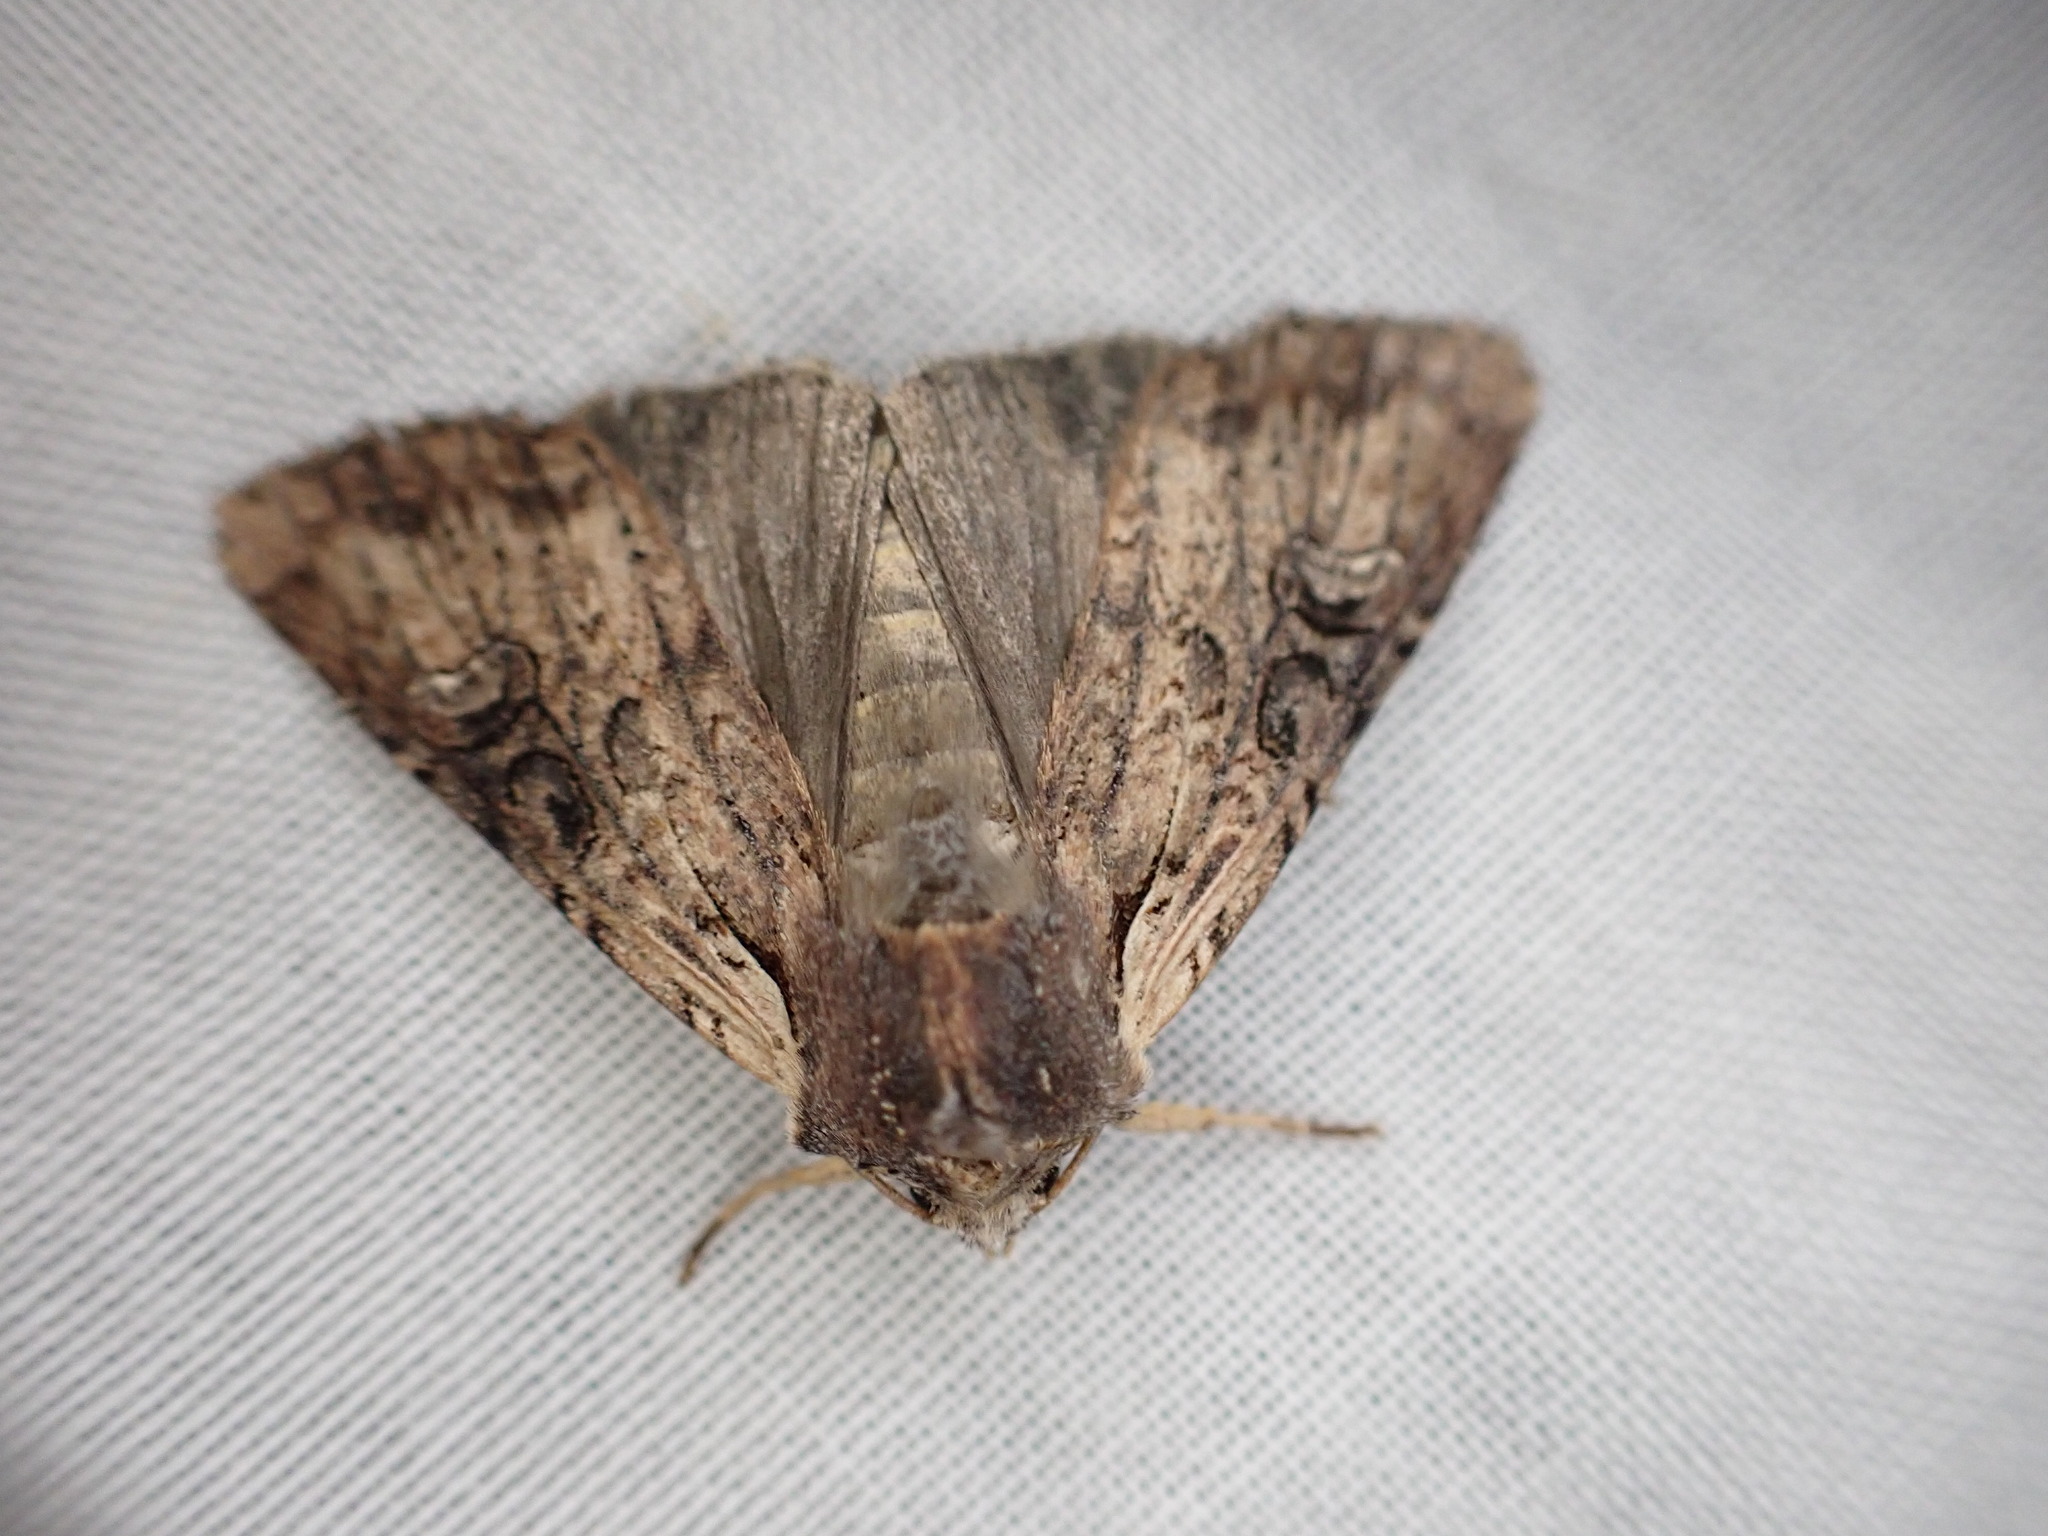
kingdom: Animalia
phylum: Arthropoda
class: Insecta
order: Lepidoptera
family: Noctuidae
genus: Ichneutica
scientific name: Ichneutica omoplaca
